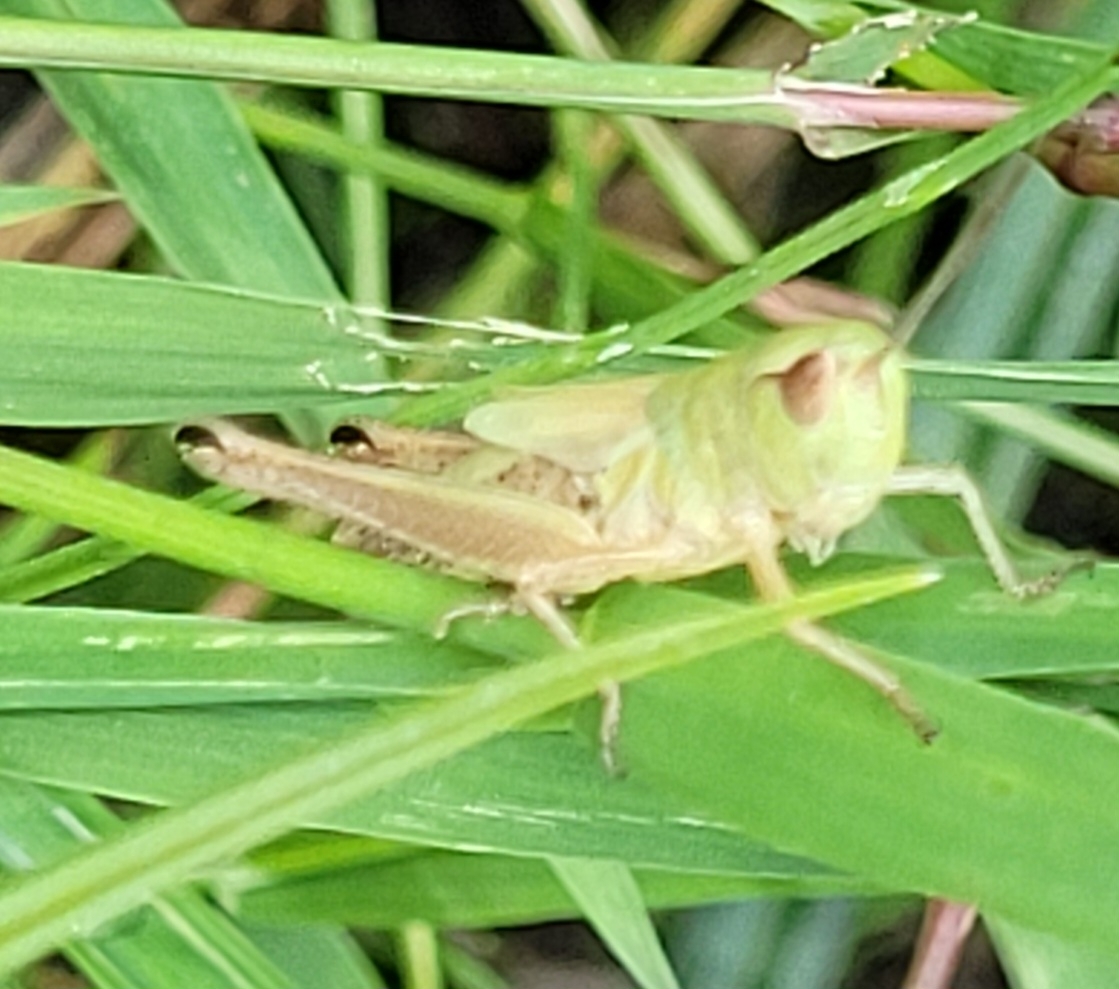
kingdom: Animalia
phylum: Arthropoda
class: Insecta
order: Orthoptera
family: Acrididae
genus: Pseudochorthippus
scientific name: Pseudochorthippus parallelus
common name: Meadow grasshopper
